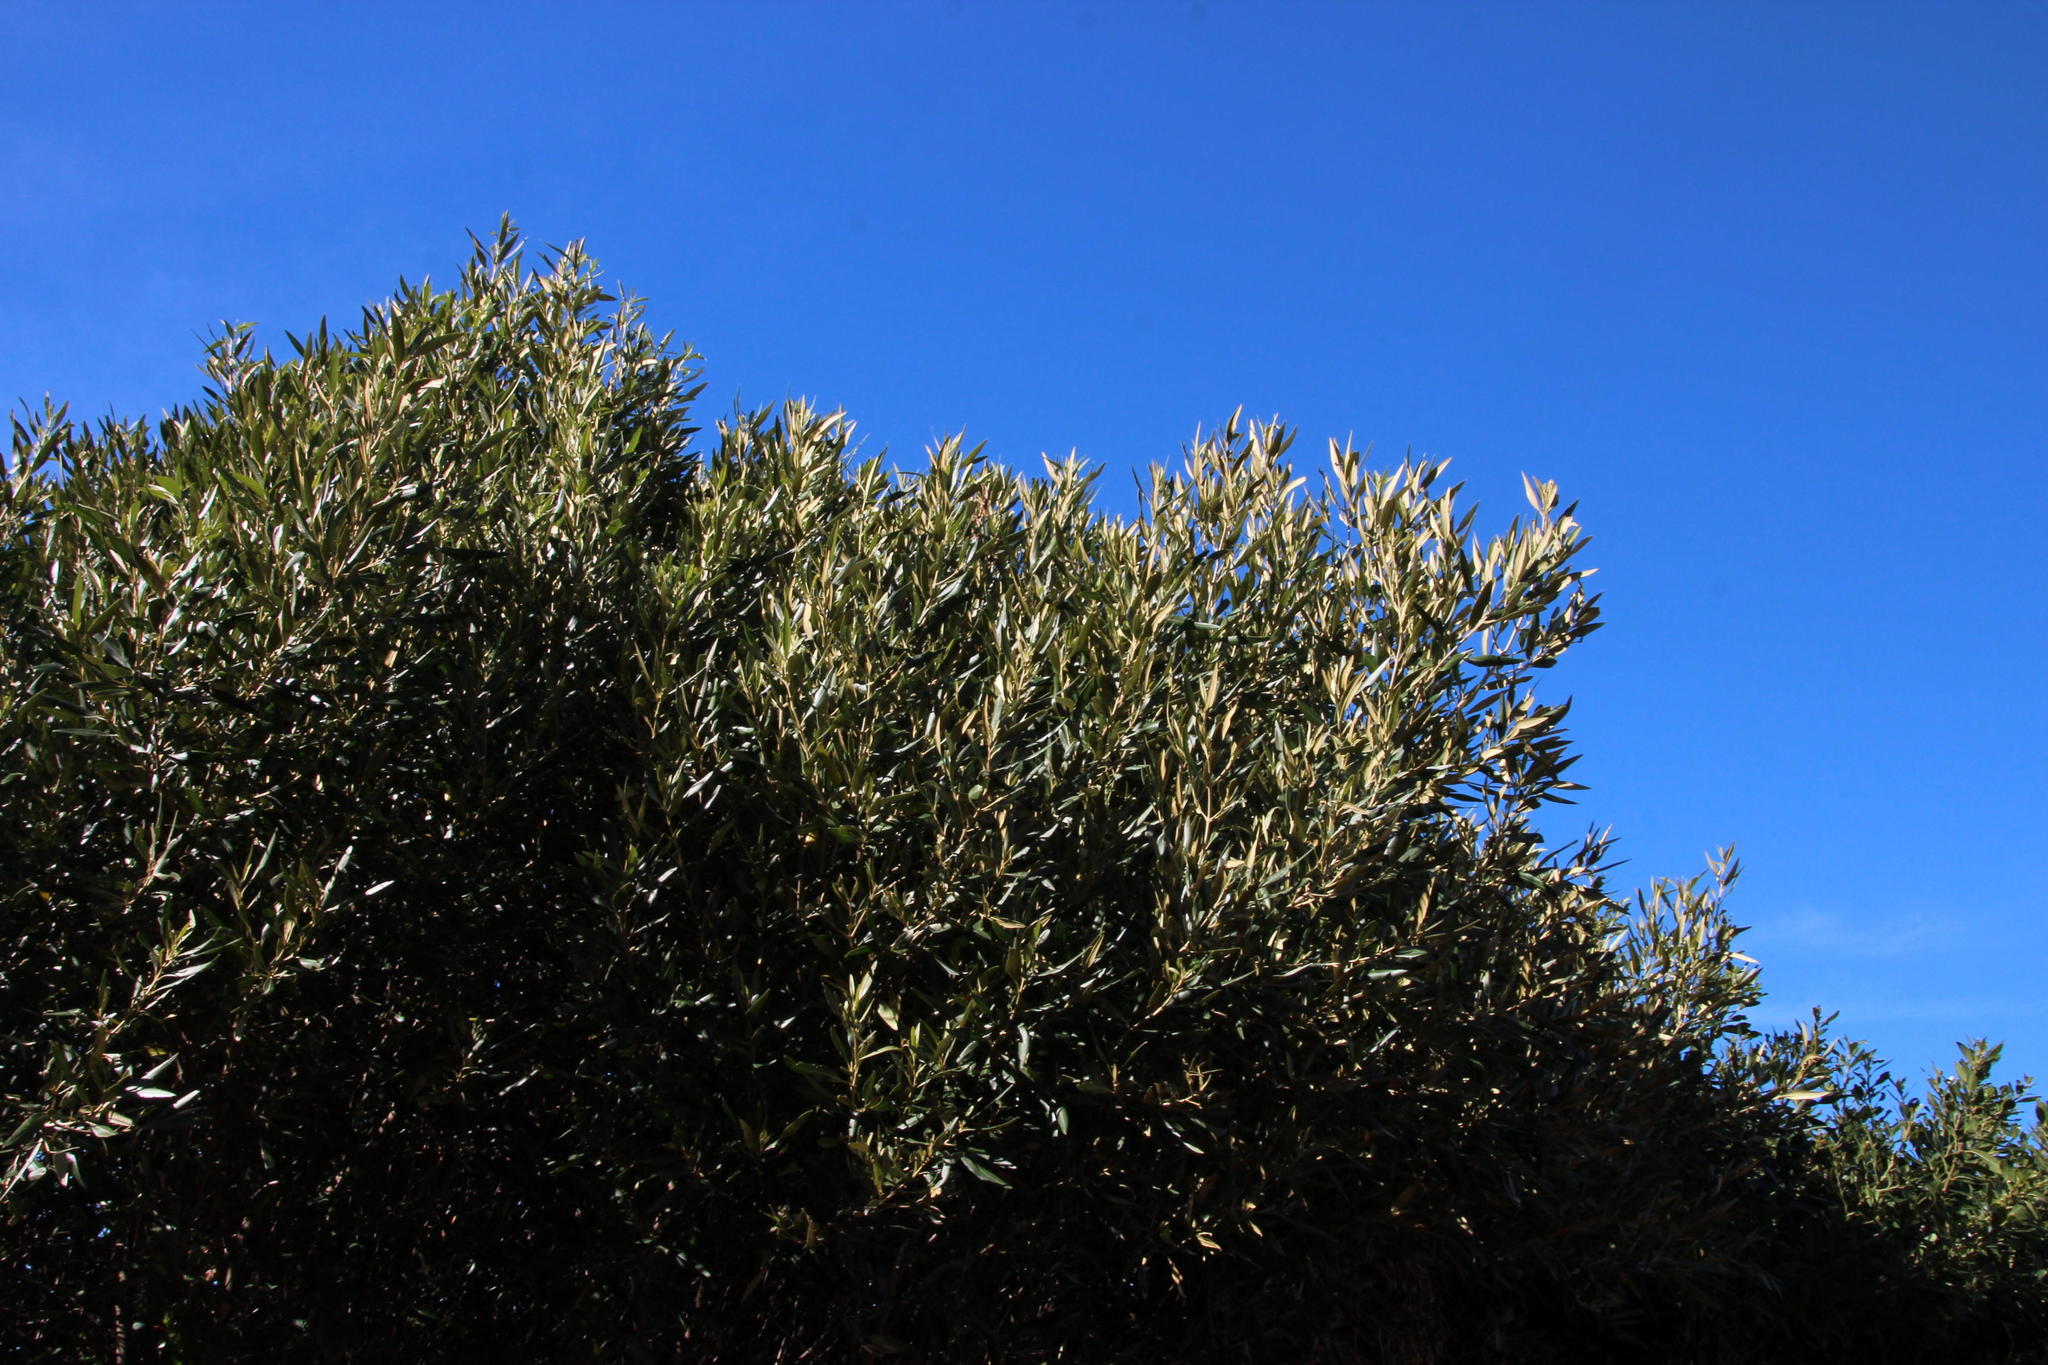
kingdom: Plantae
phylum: Tracheophyta
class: Magnoliopsida
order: Lamiales
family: Oleaceae
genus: Olea
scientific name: Olea europaea
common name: Olive
